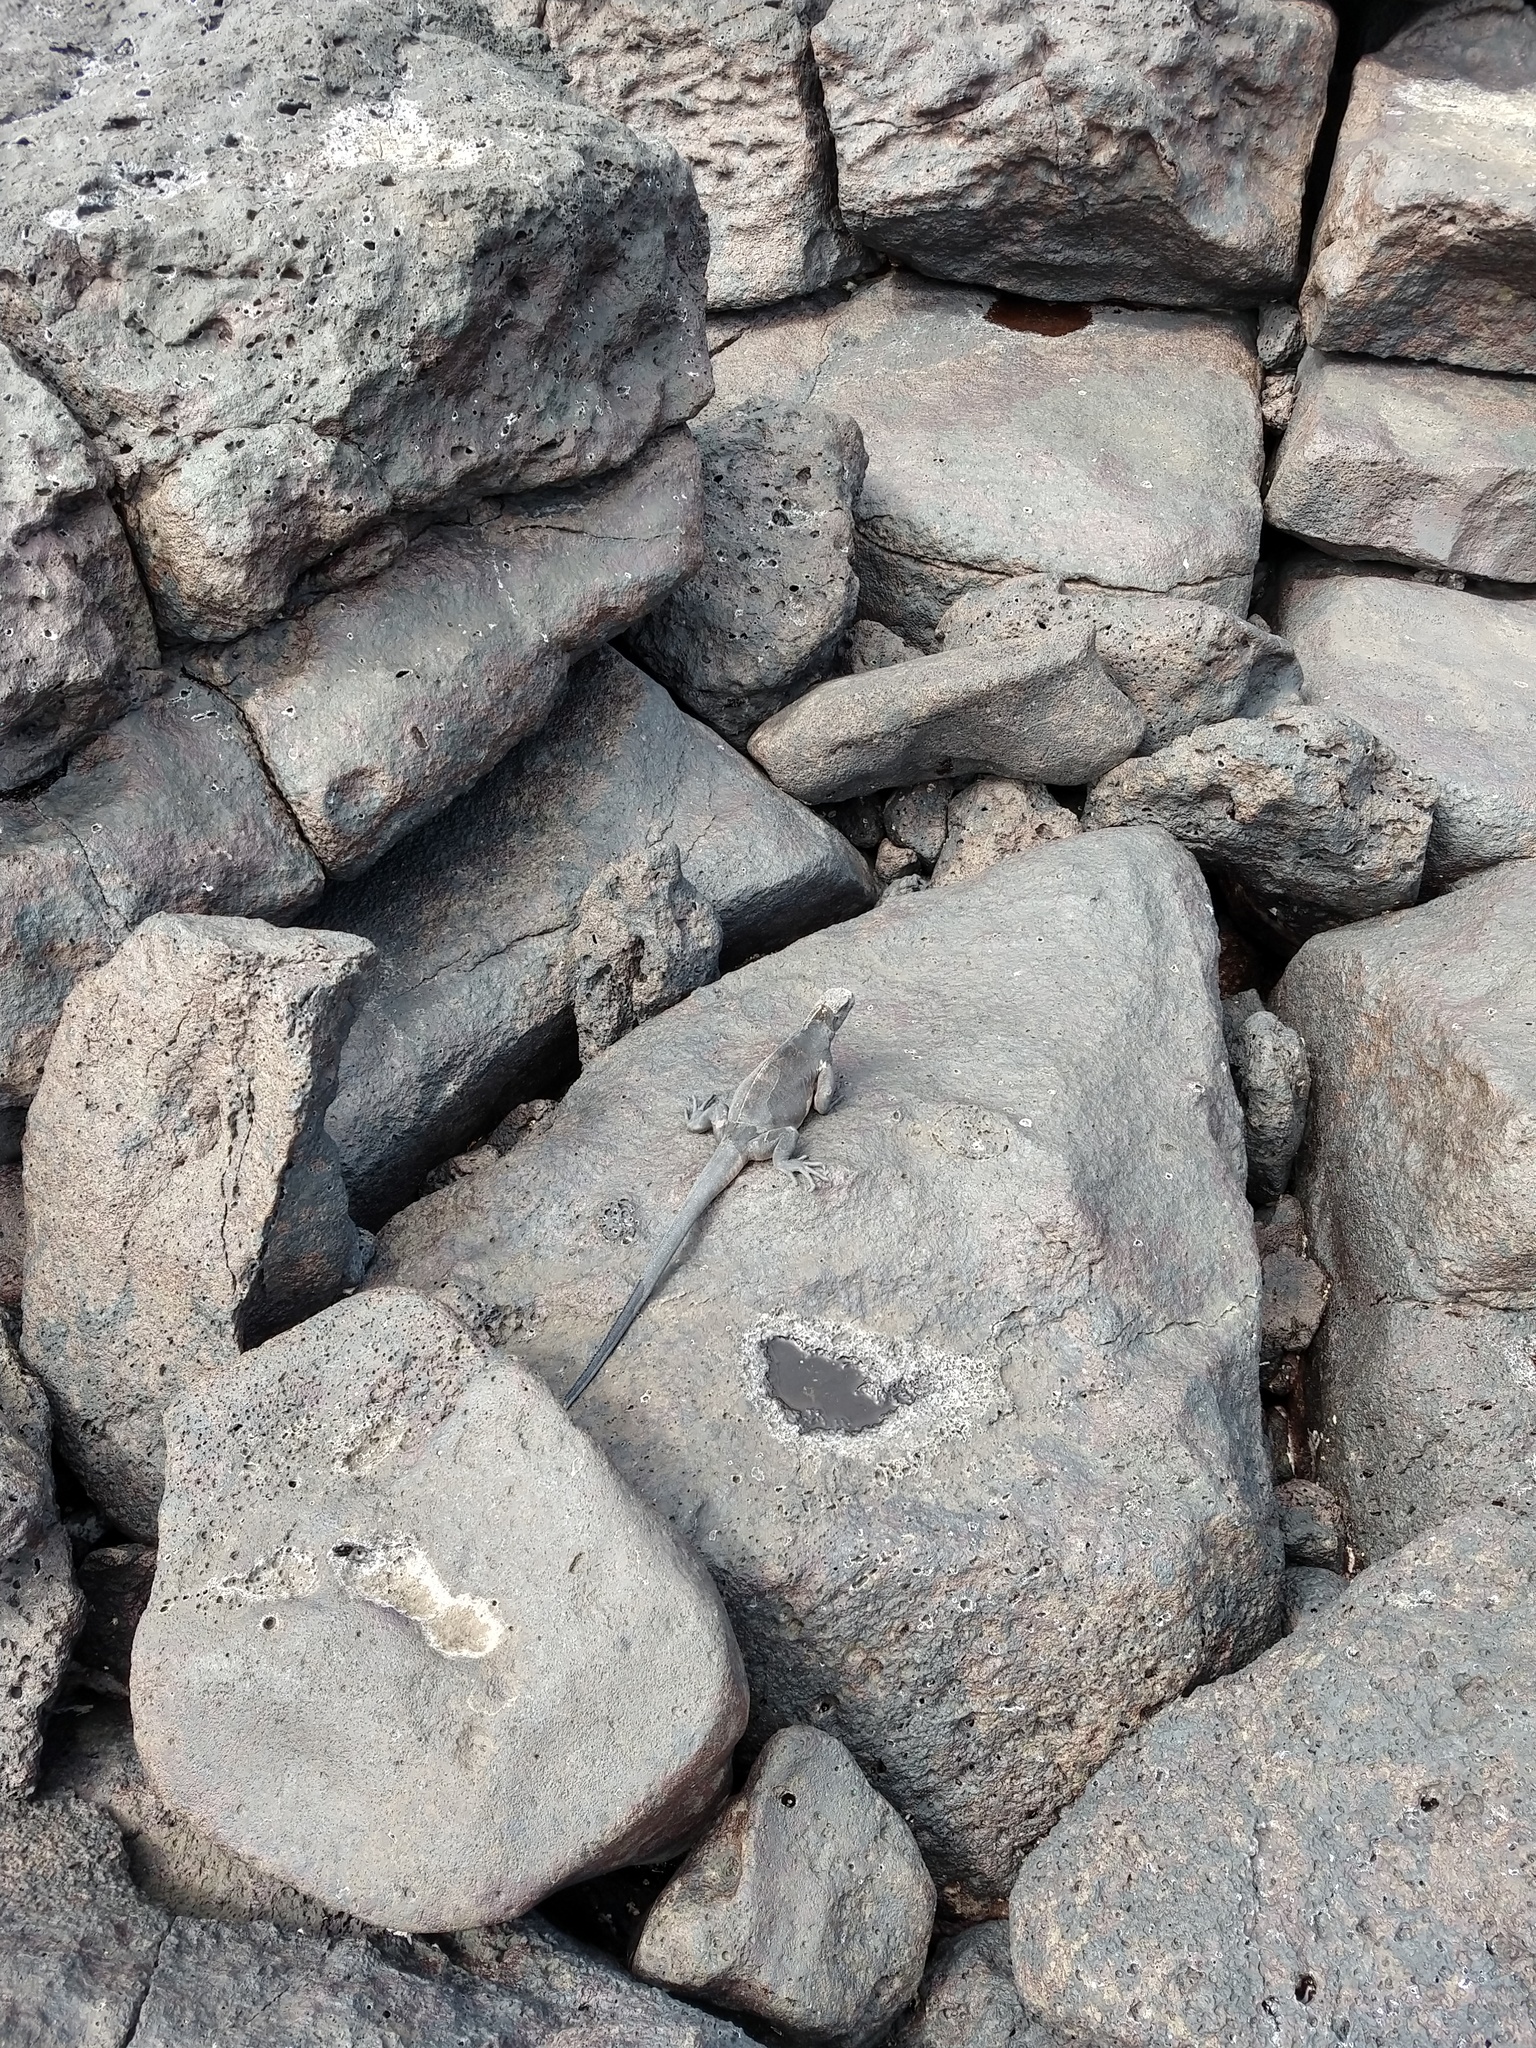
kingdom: Animalia
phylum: Chordata
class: Squamata
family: Iguanidae
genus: Amblyrhynchus
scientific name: Amblyrhynchus cristatus
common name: Marine iguana
